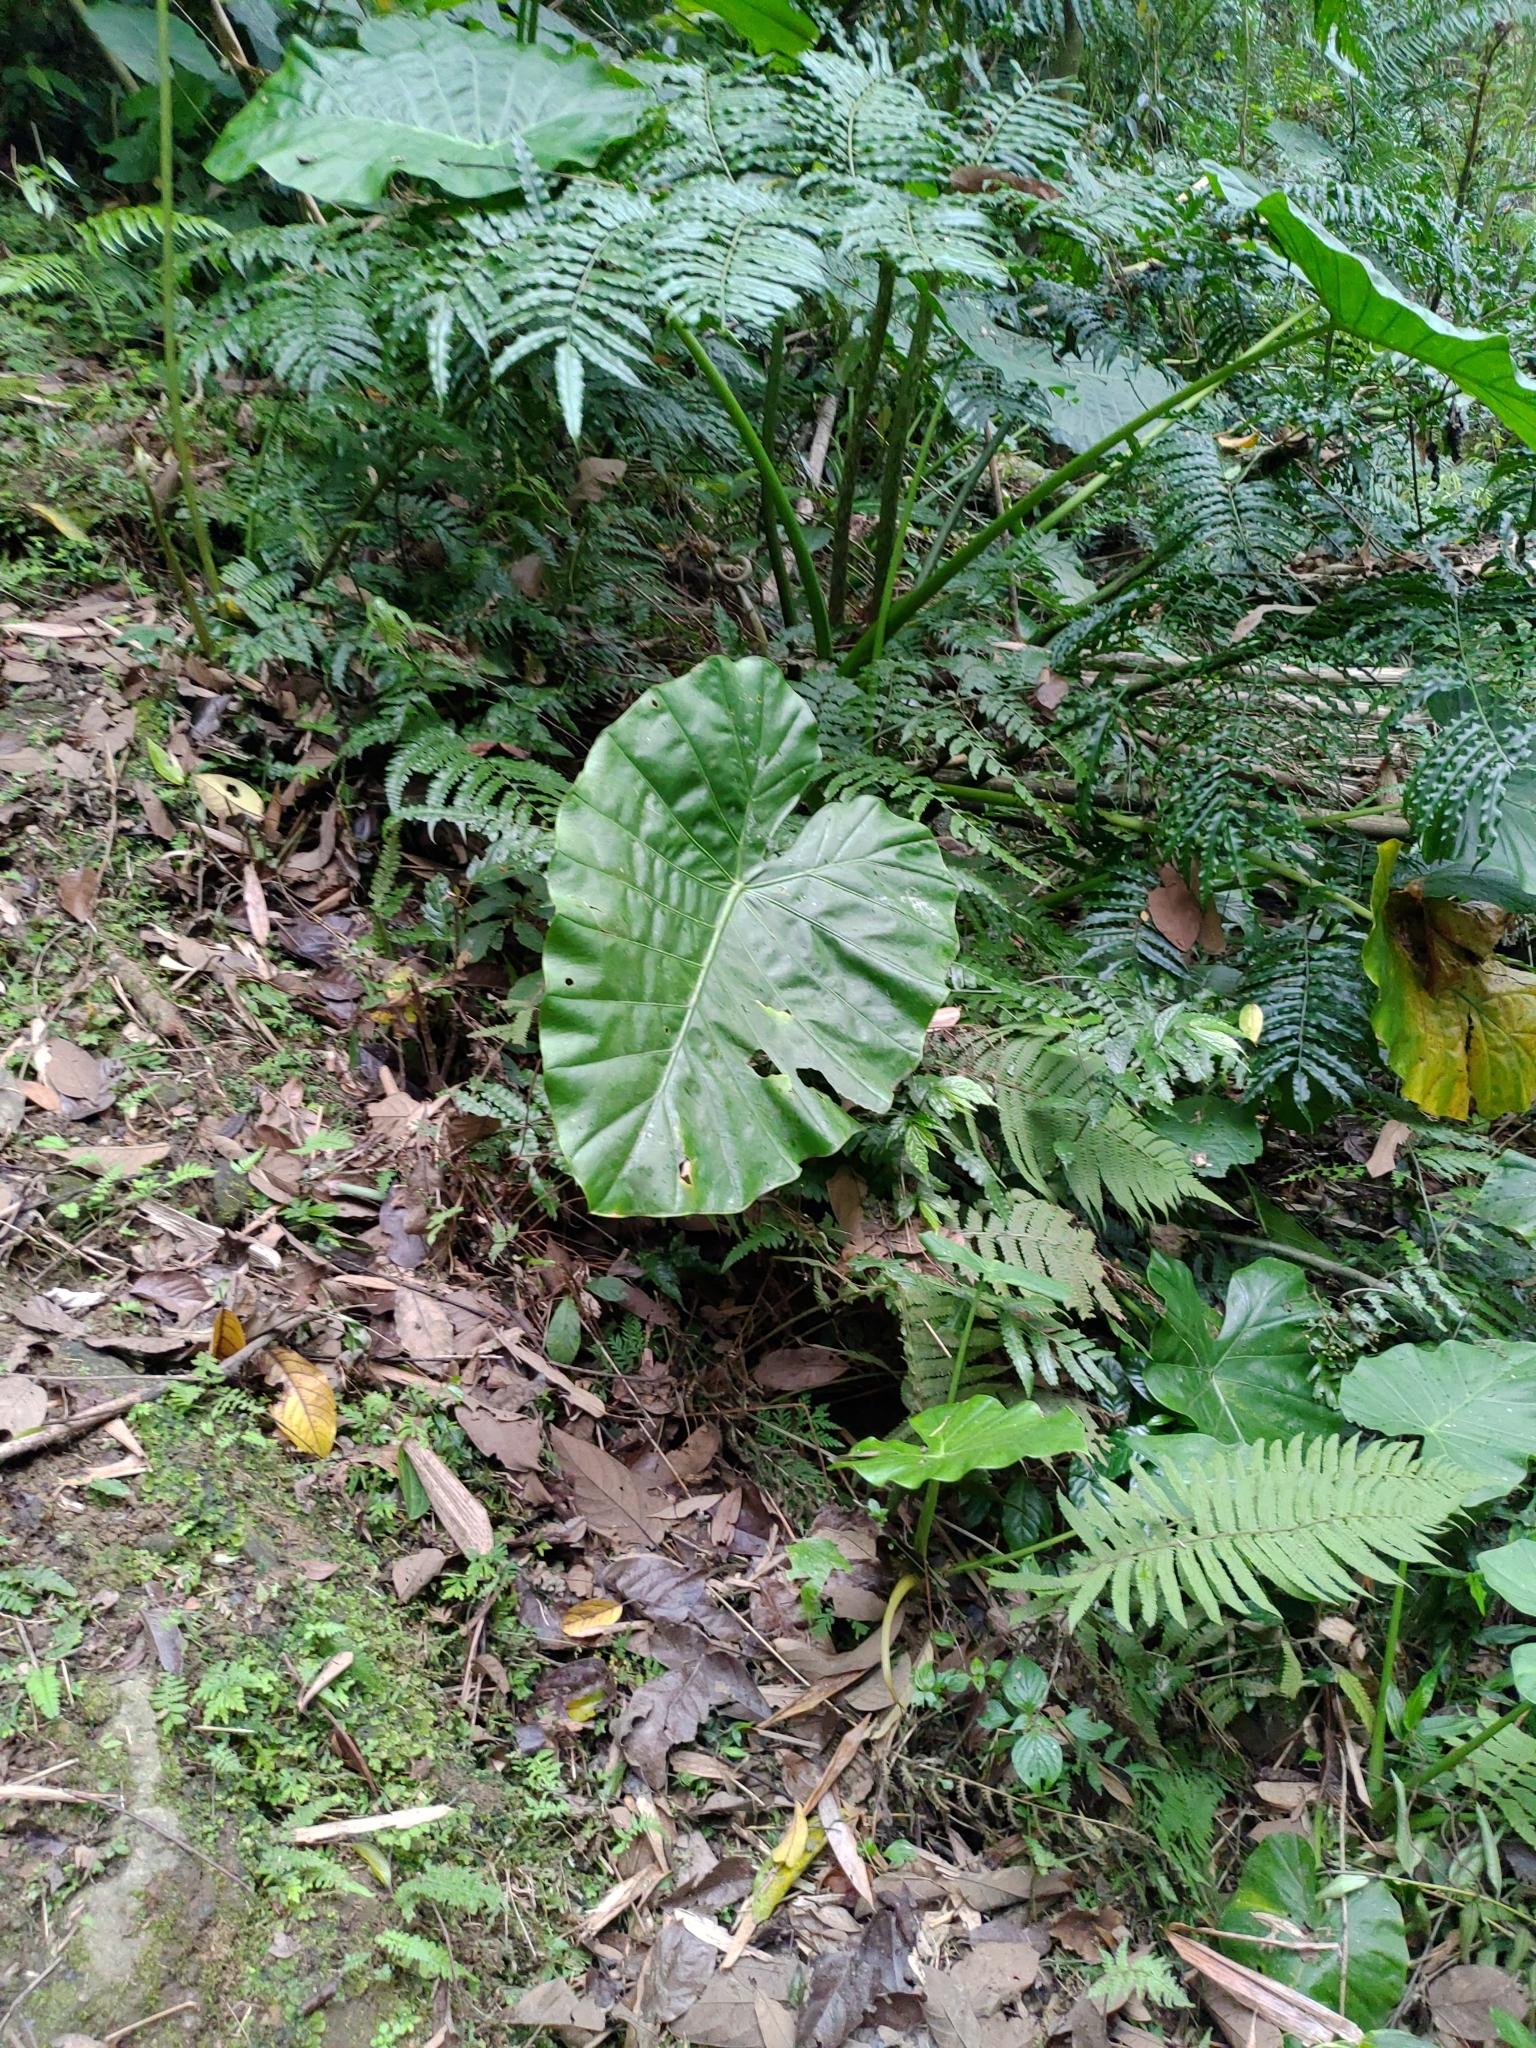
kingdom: Plantae
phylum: Tracheophyta
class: Liliopsida
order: Alismatales
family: Araceae
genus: Alocasia
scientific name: Alocasia odora
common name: Asian taro
